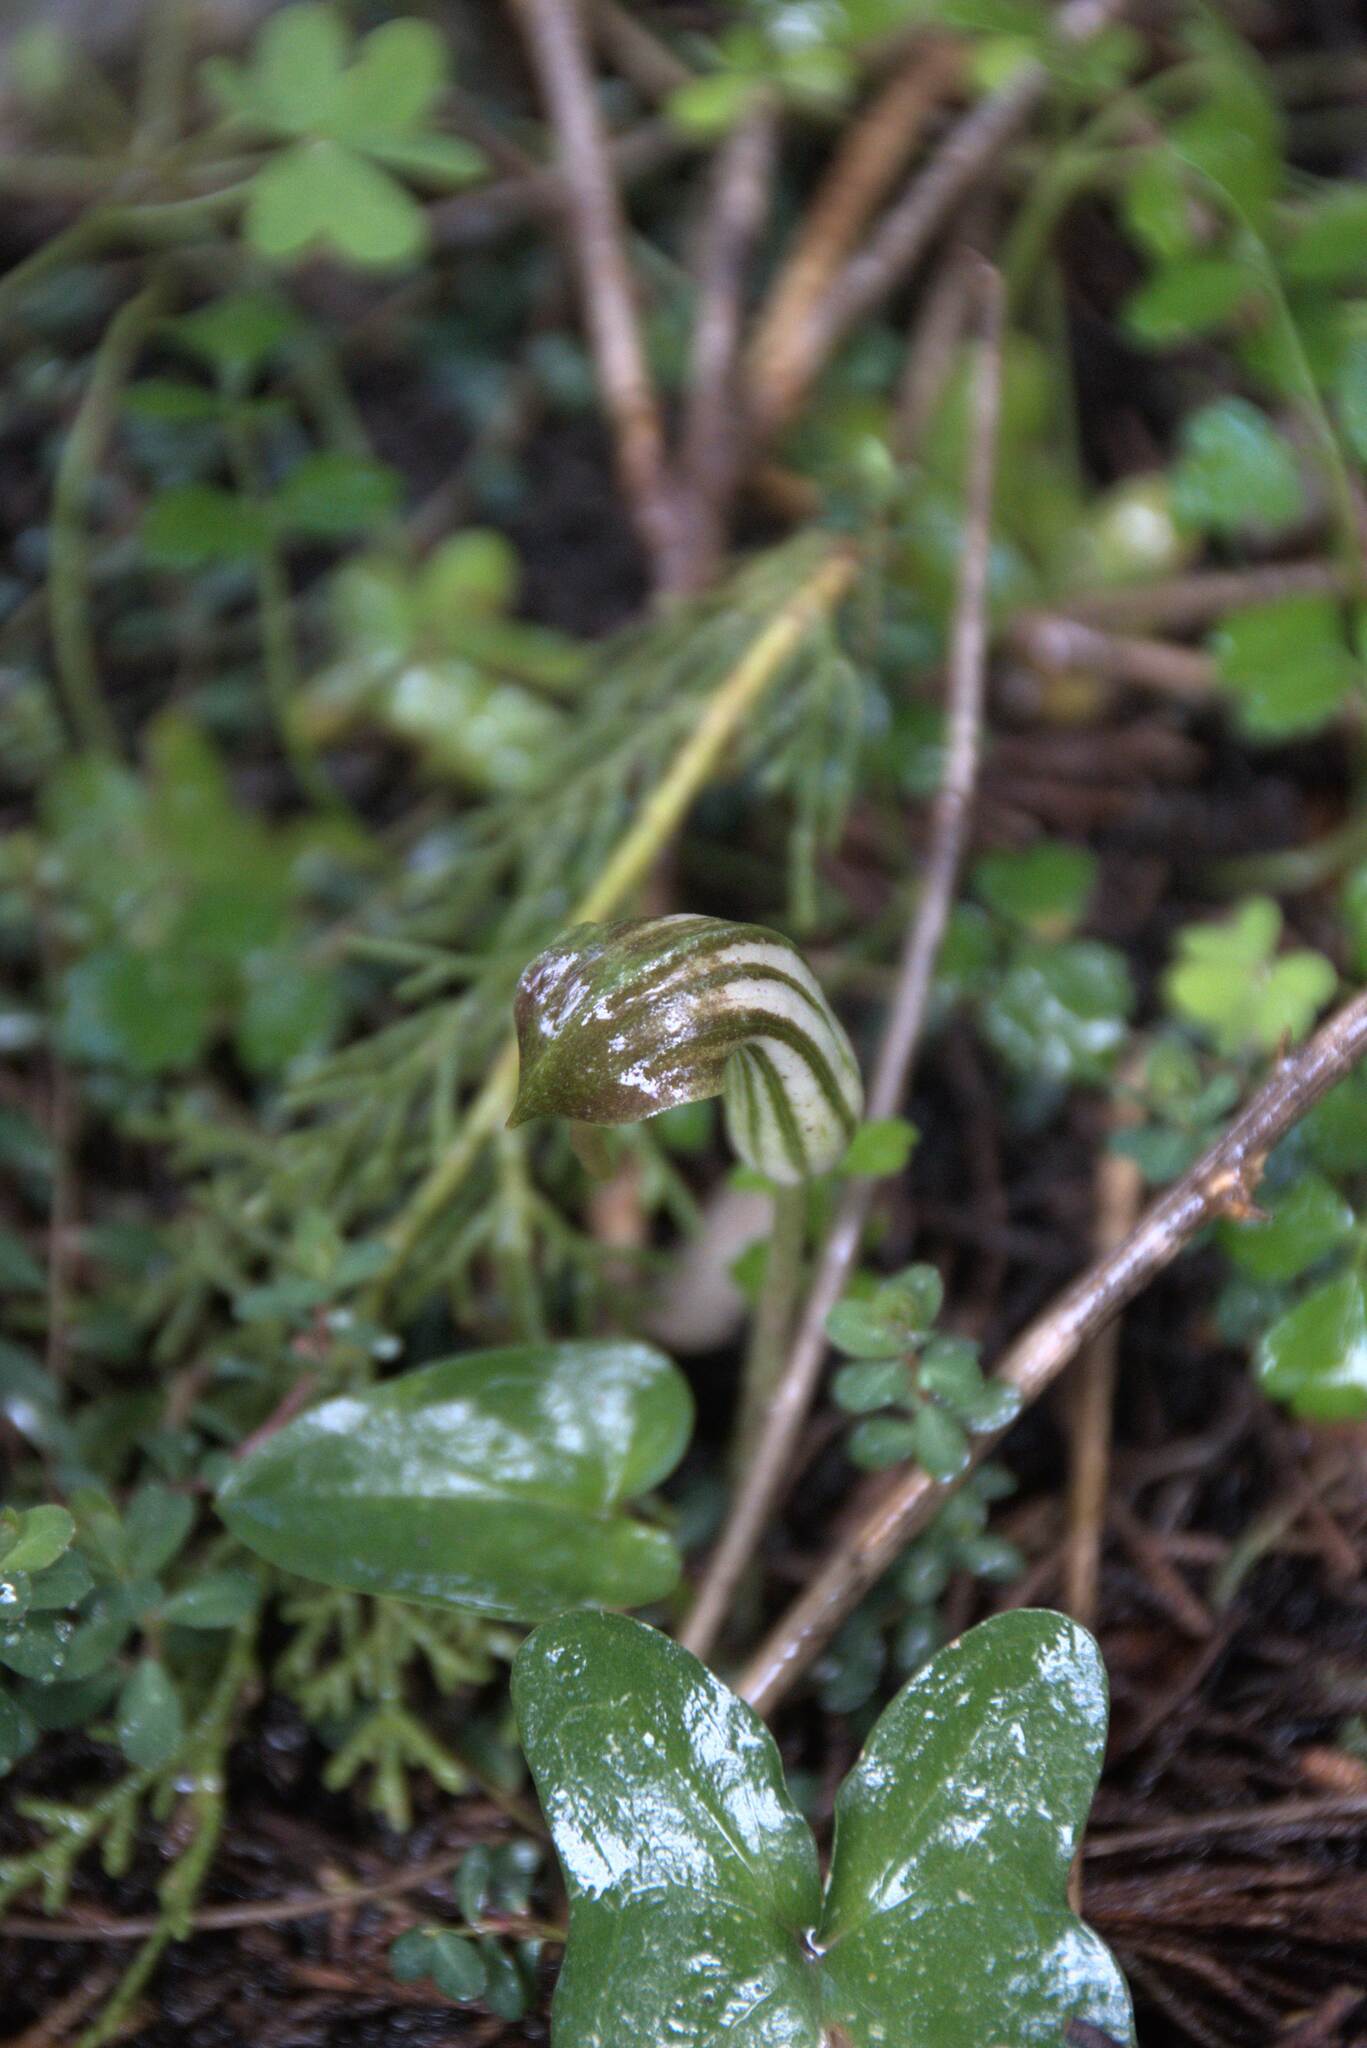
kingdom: Plantae
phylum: Tracheophyta
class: Liliopsida
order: Alismatales
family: Araceae
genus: Arisarum
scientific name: Arisarum vulgare
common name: Common arisarum
